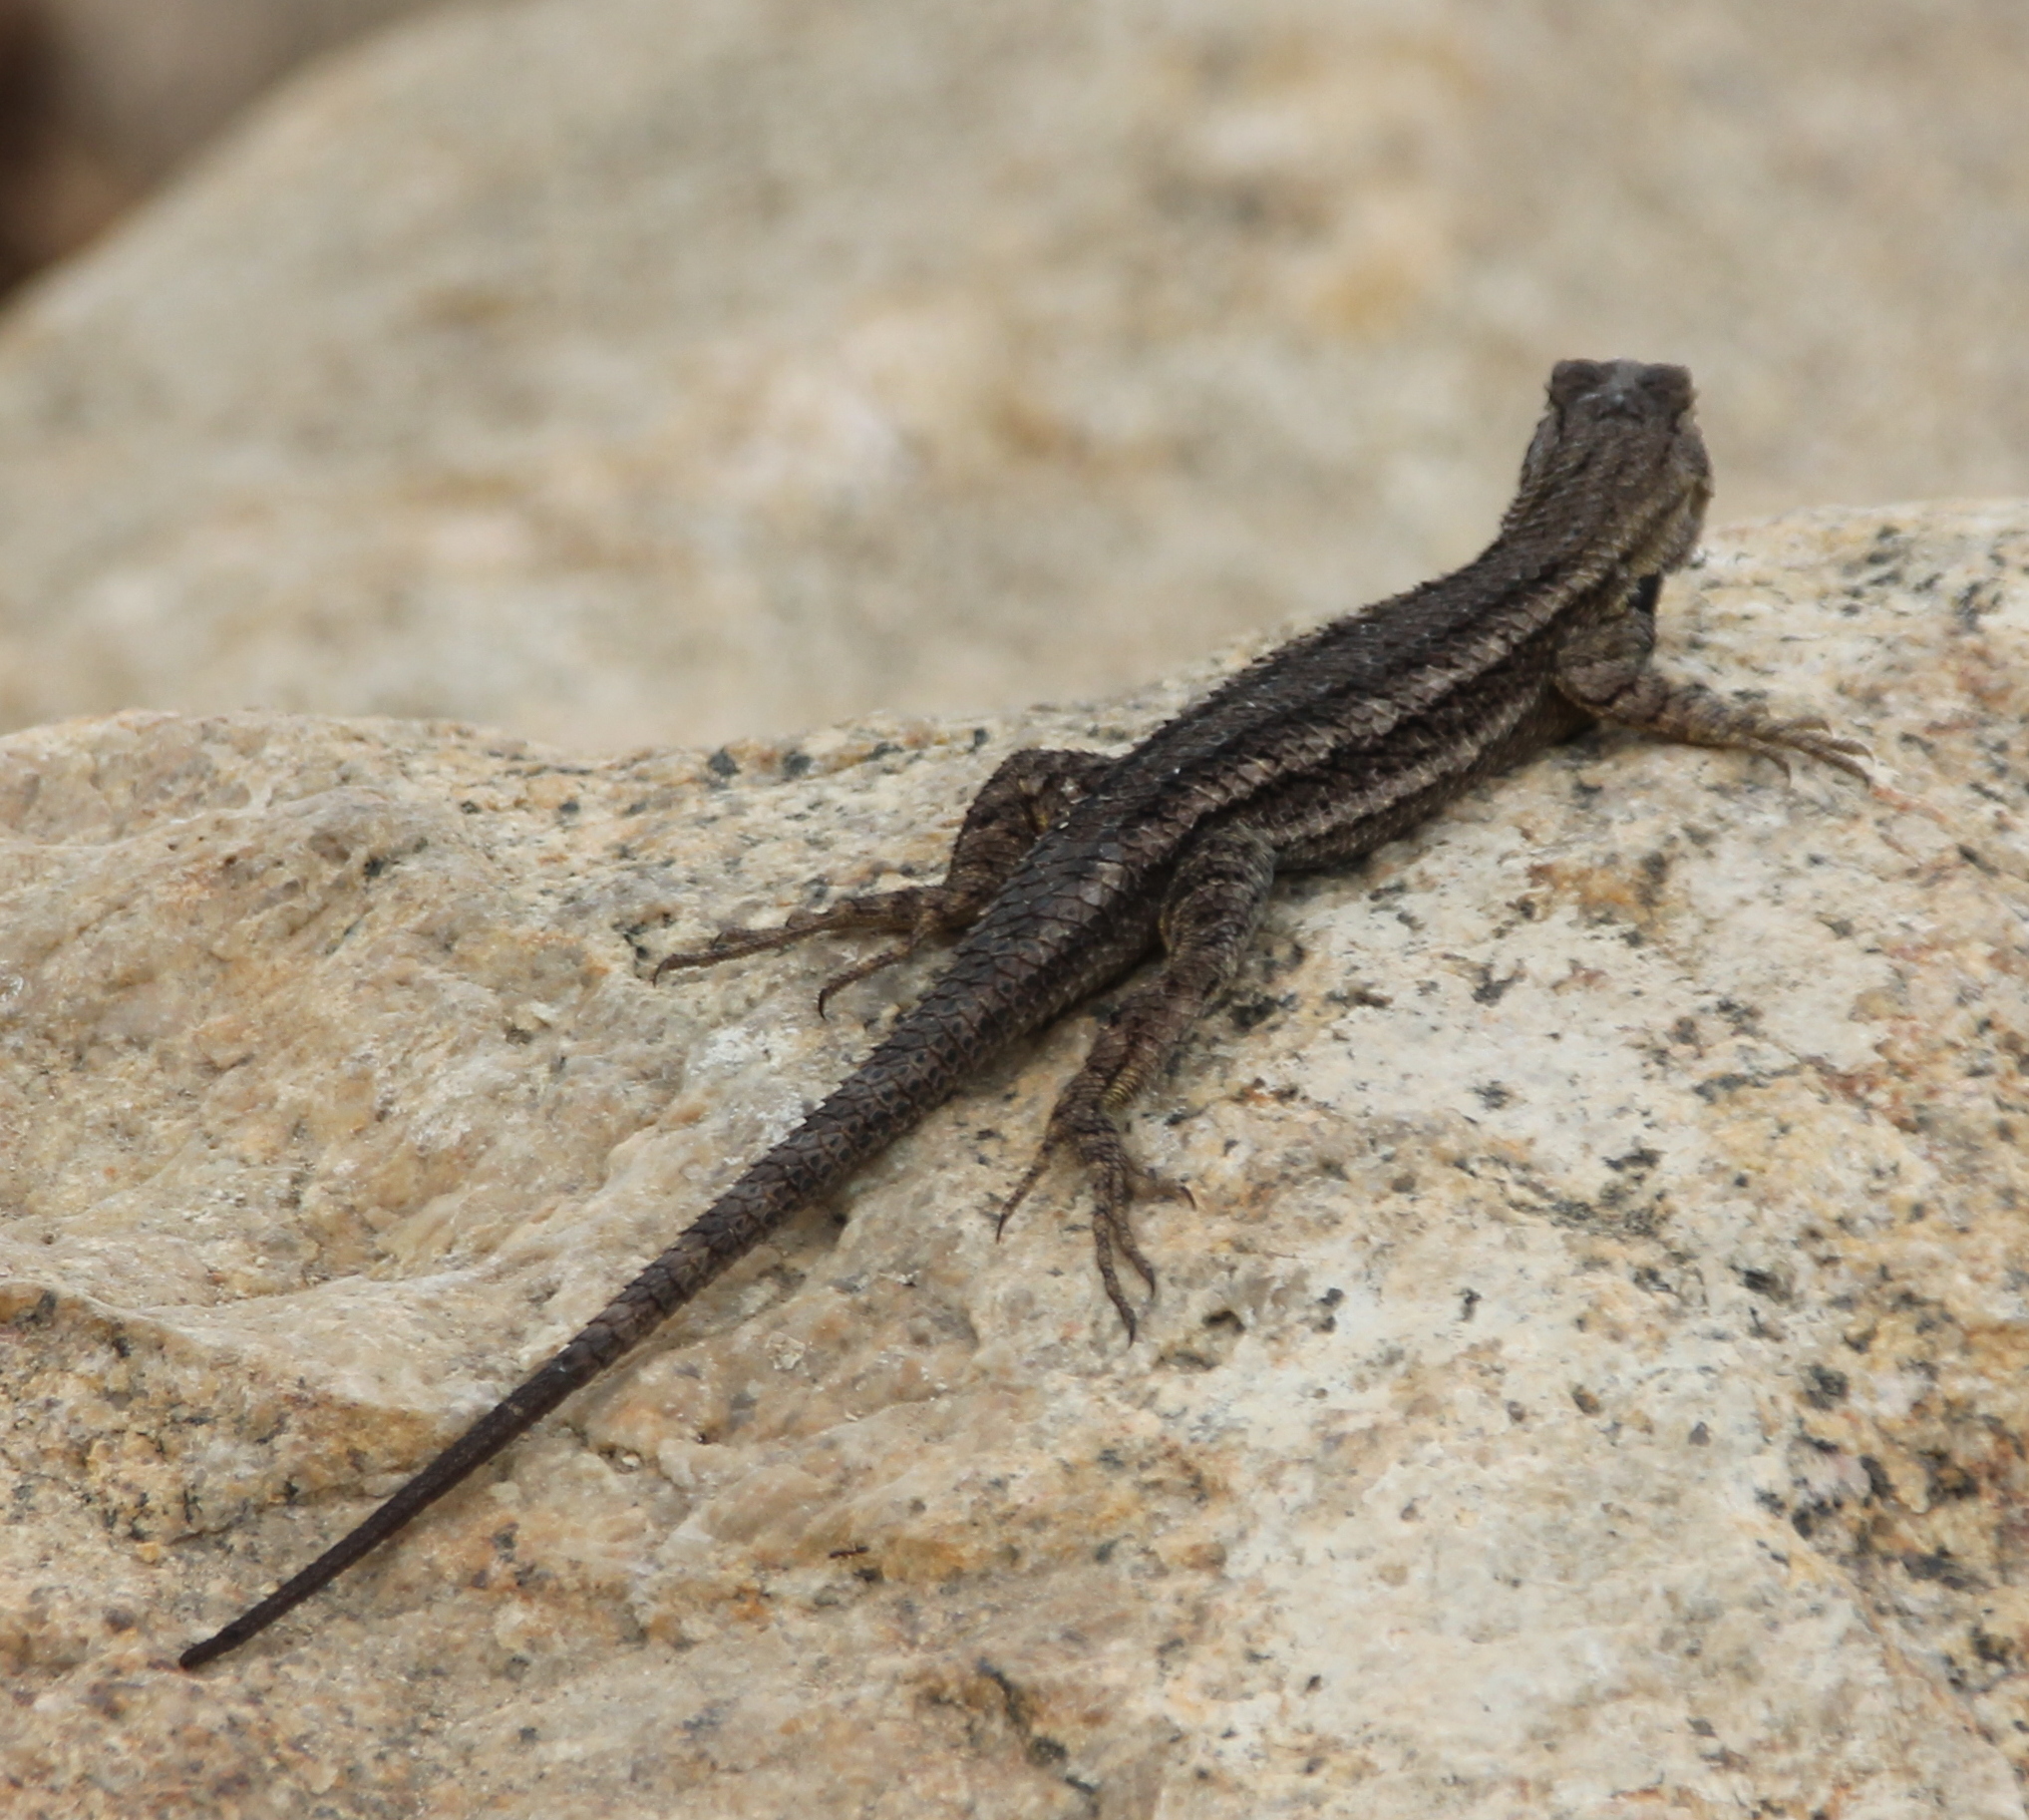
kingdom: Animalia
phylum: Chordata
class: Squamata
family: Phrynosomatidae
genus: Sceloporus
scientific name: Sceloporus occidentalis
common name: Western fence lizard
